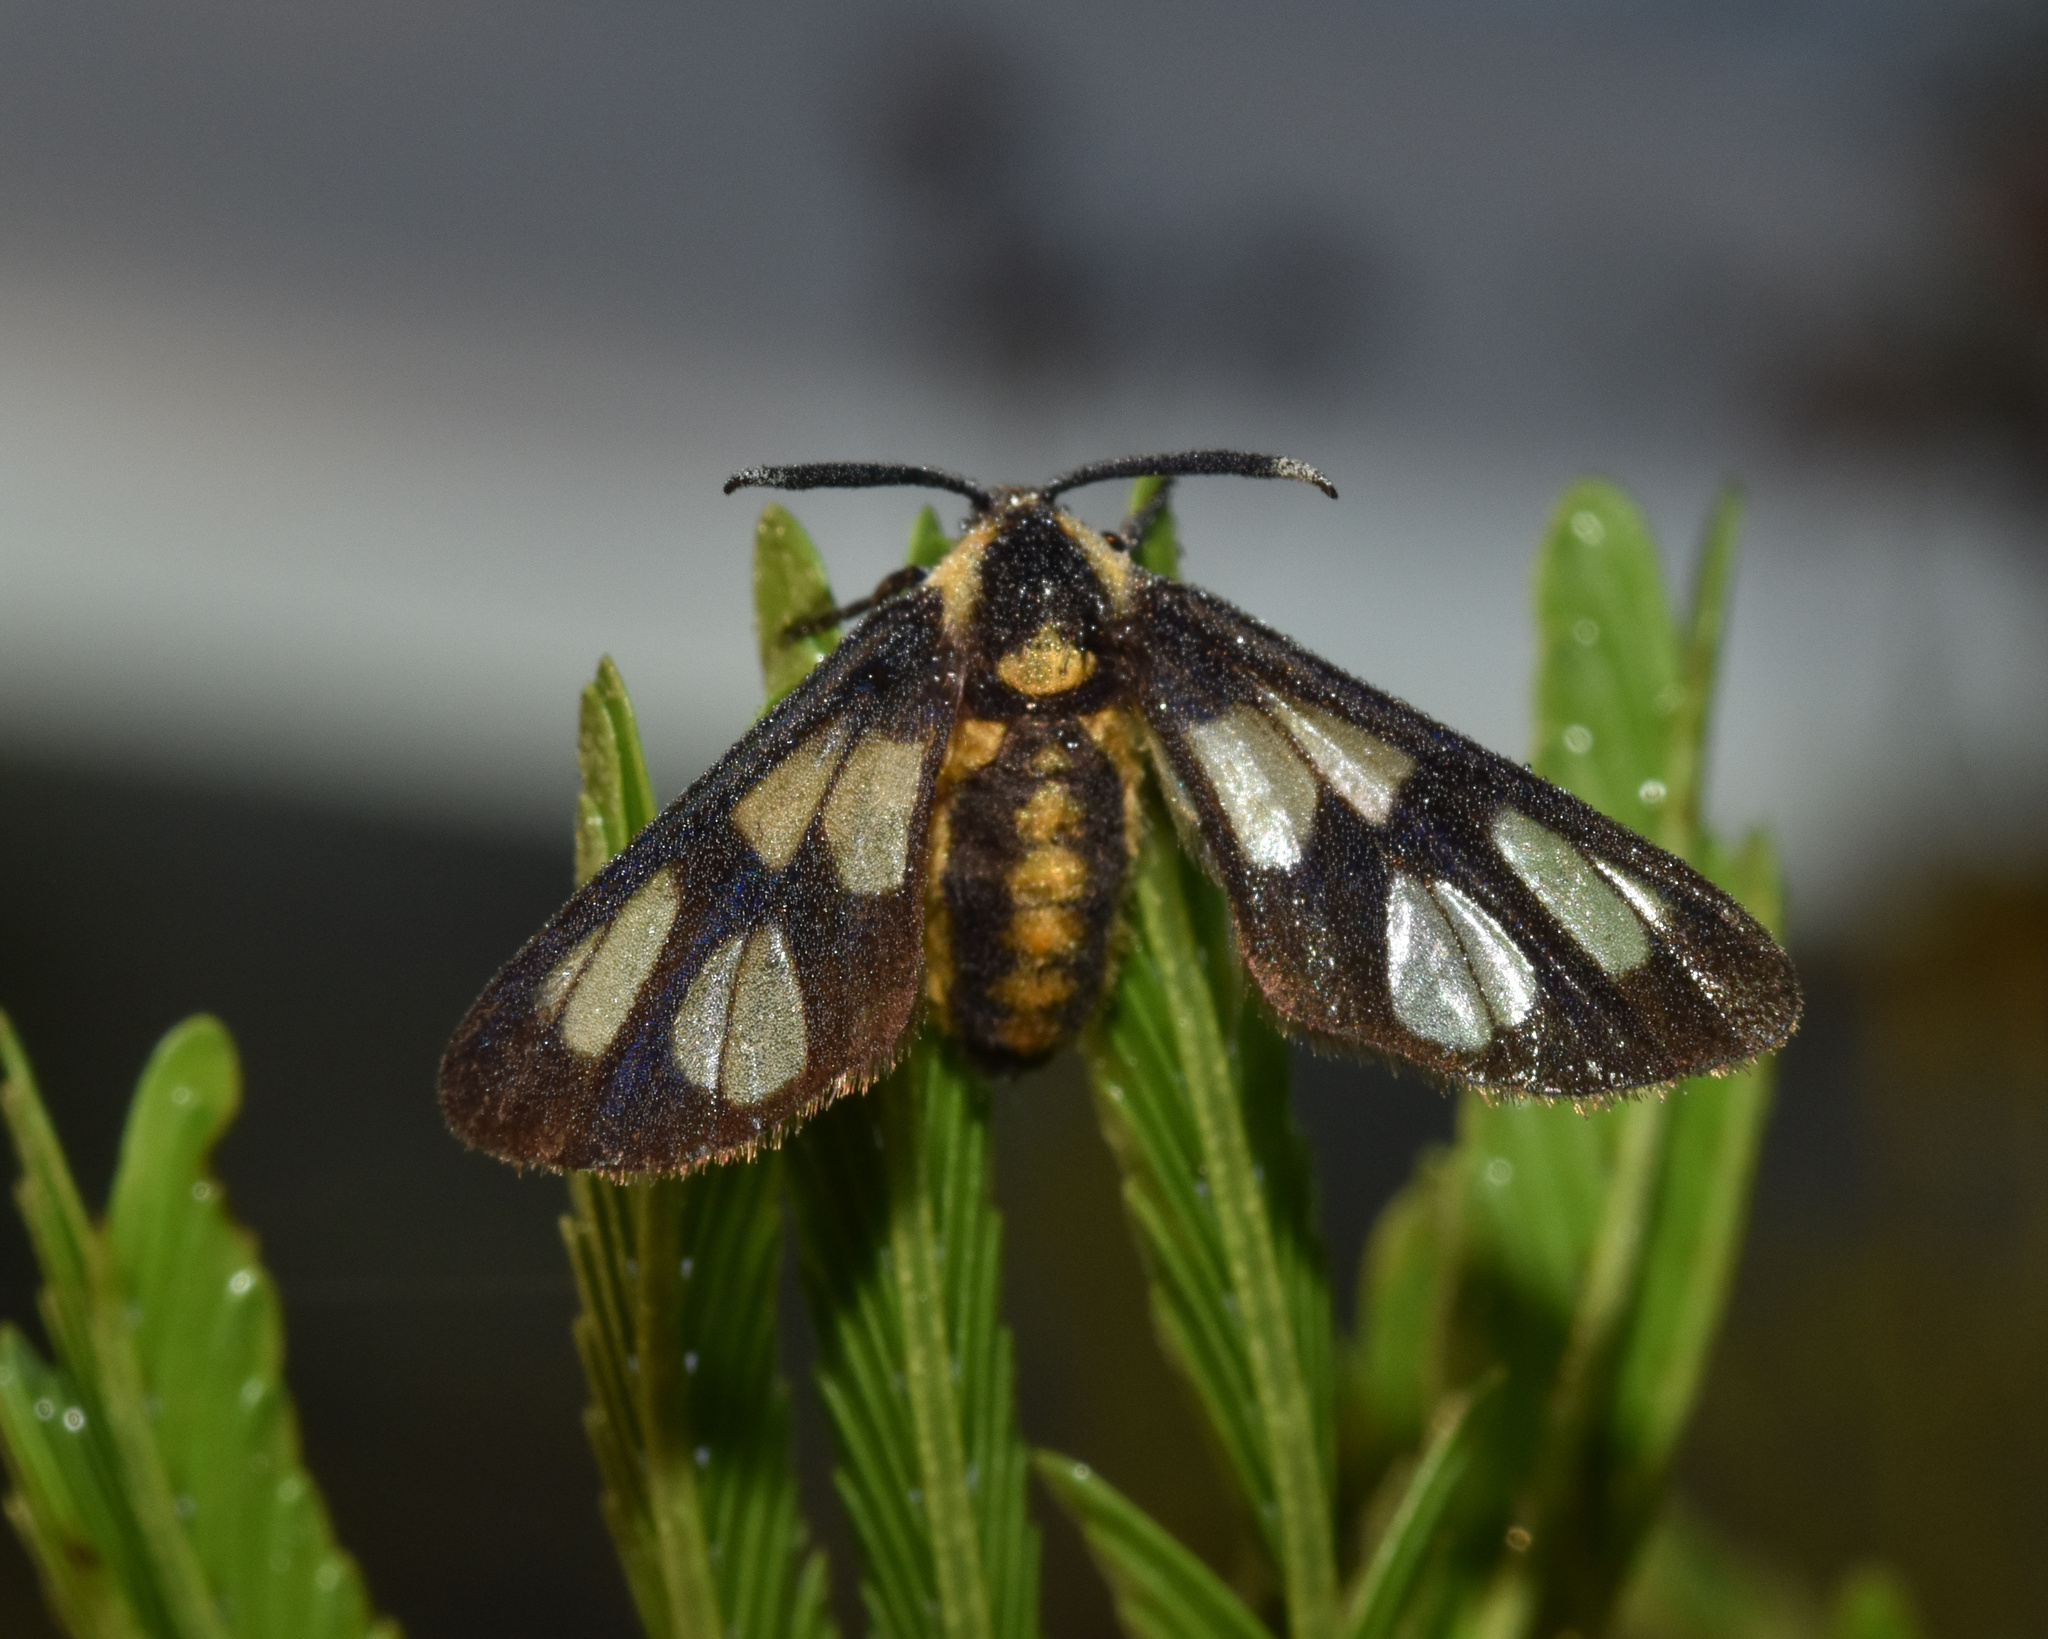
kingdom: Animalia
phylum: Arthropoda
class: Insecta
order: Lepidoptera
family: Erebidae
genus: Ceryx
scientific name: Ceryx anthraciformis
